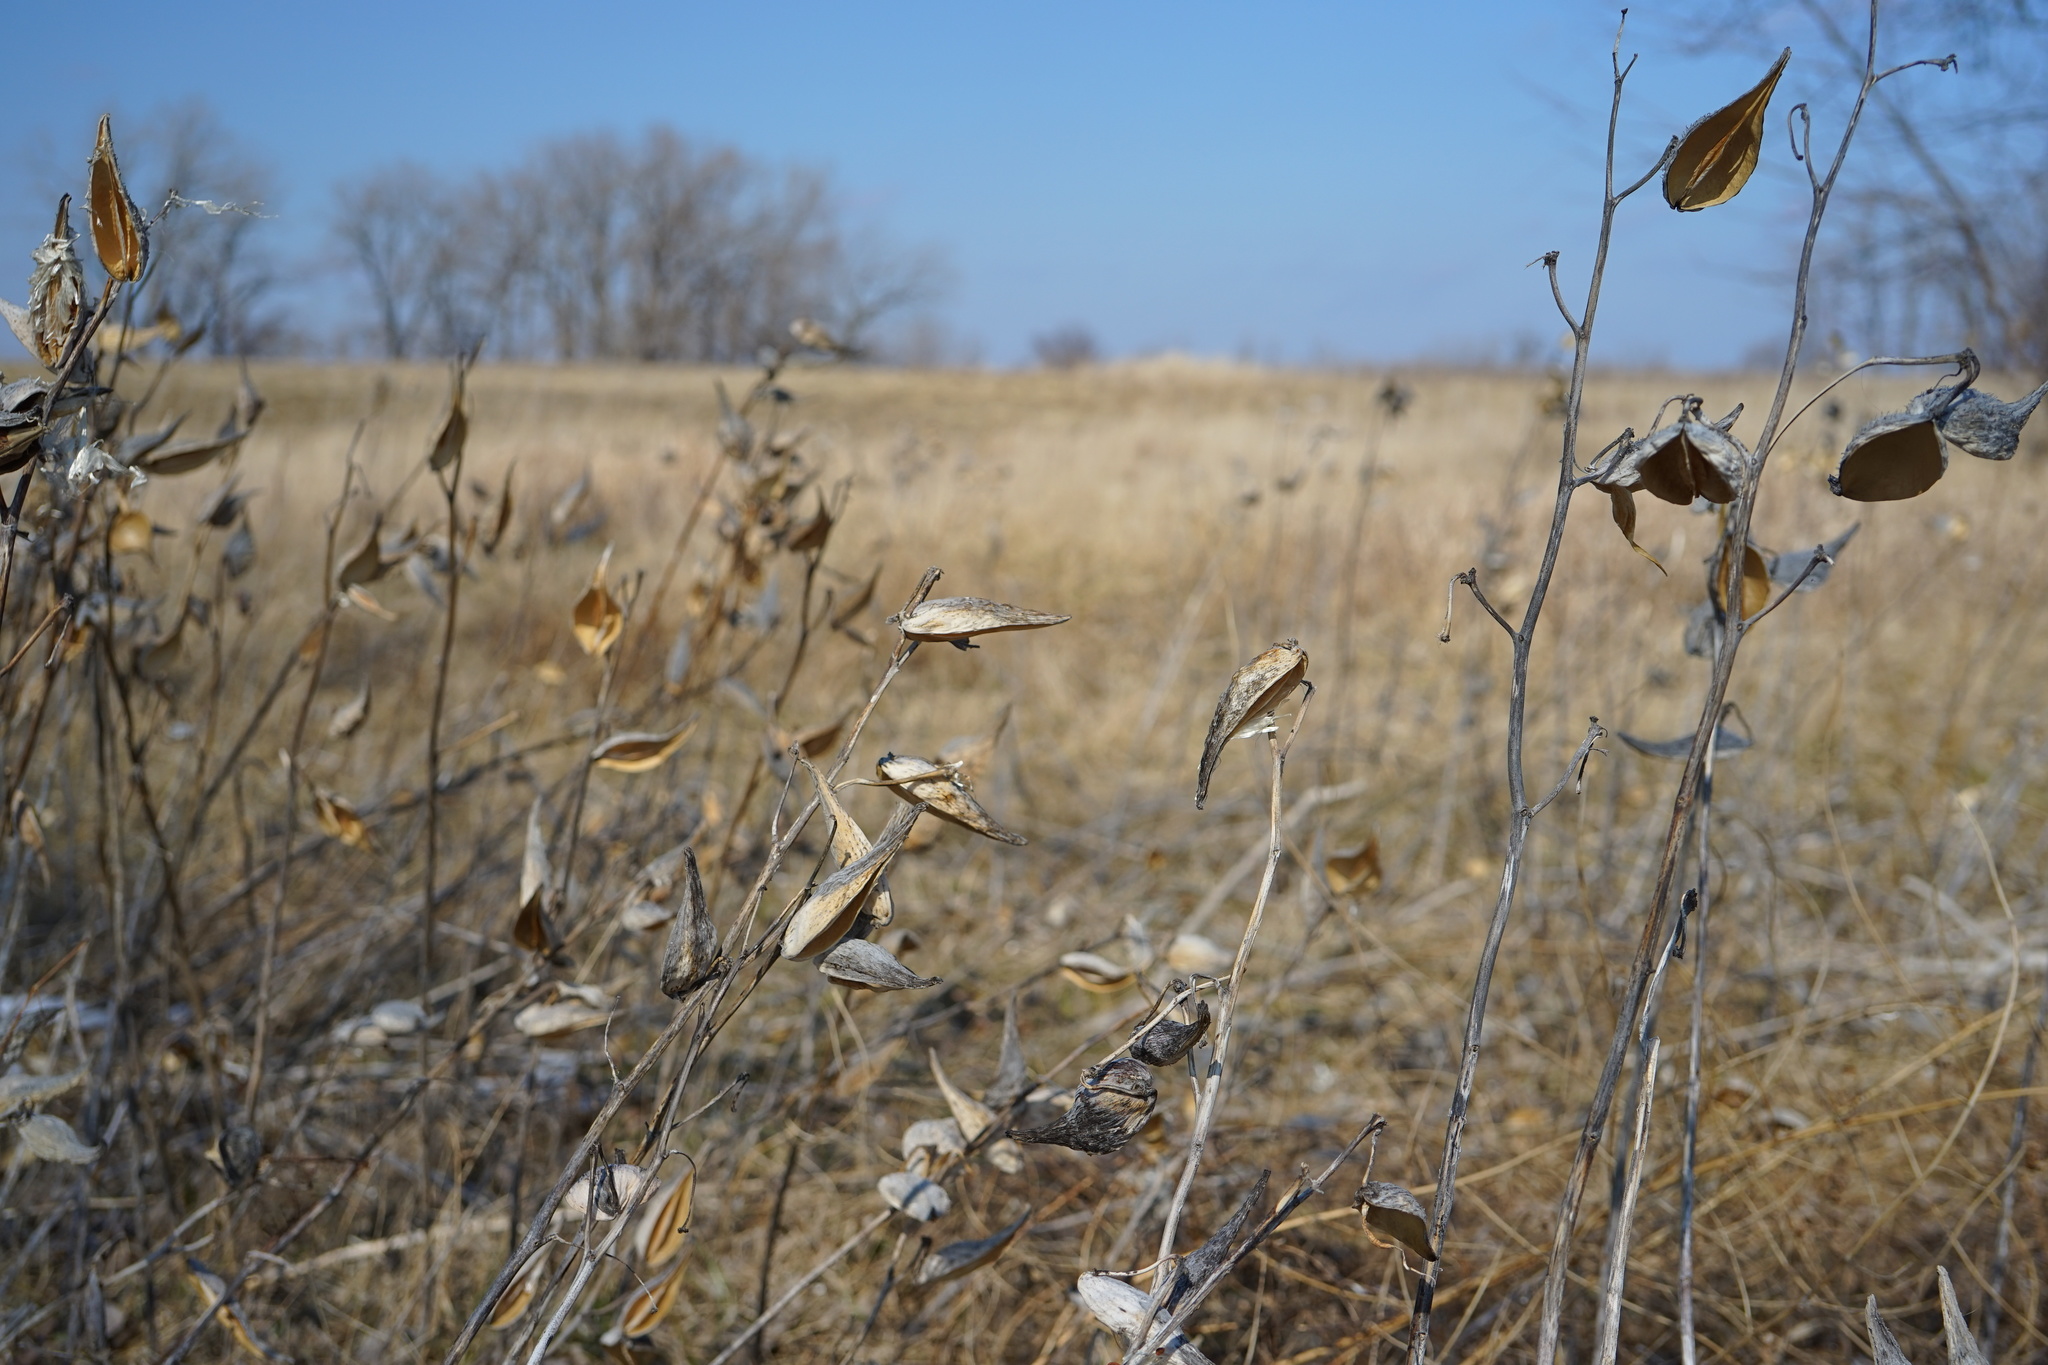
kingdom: Plantae
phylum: Tracheophyta
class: Magnoliopsida
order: Gentianales
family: Apocynaceae
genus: Asclepias
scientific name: Asclepias syriaca
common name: Common milkweed
